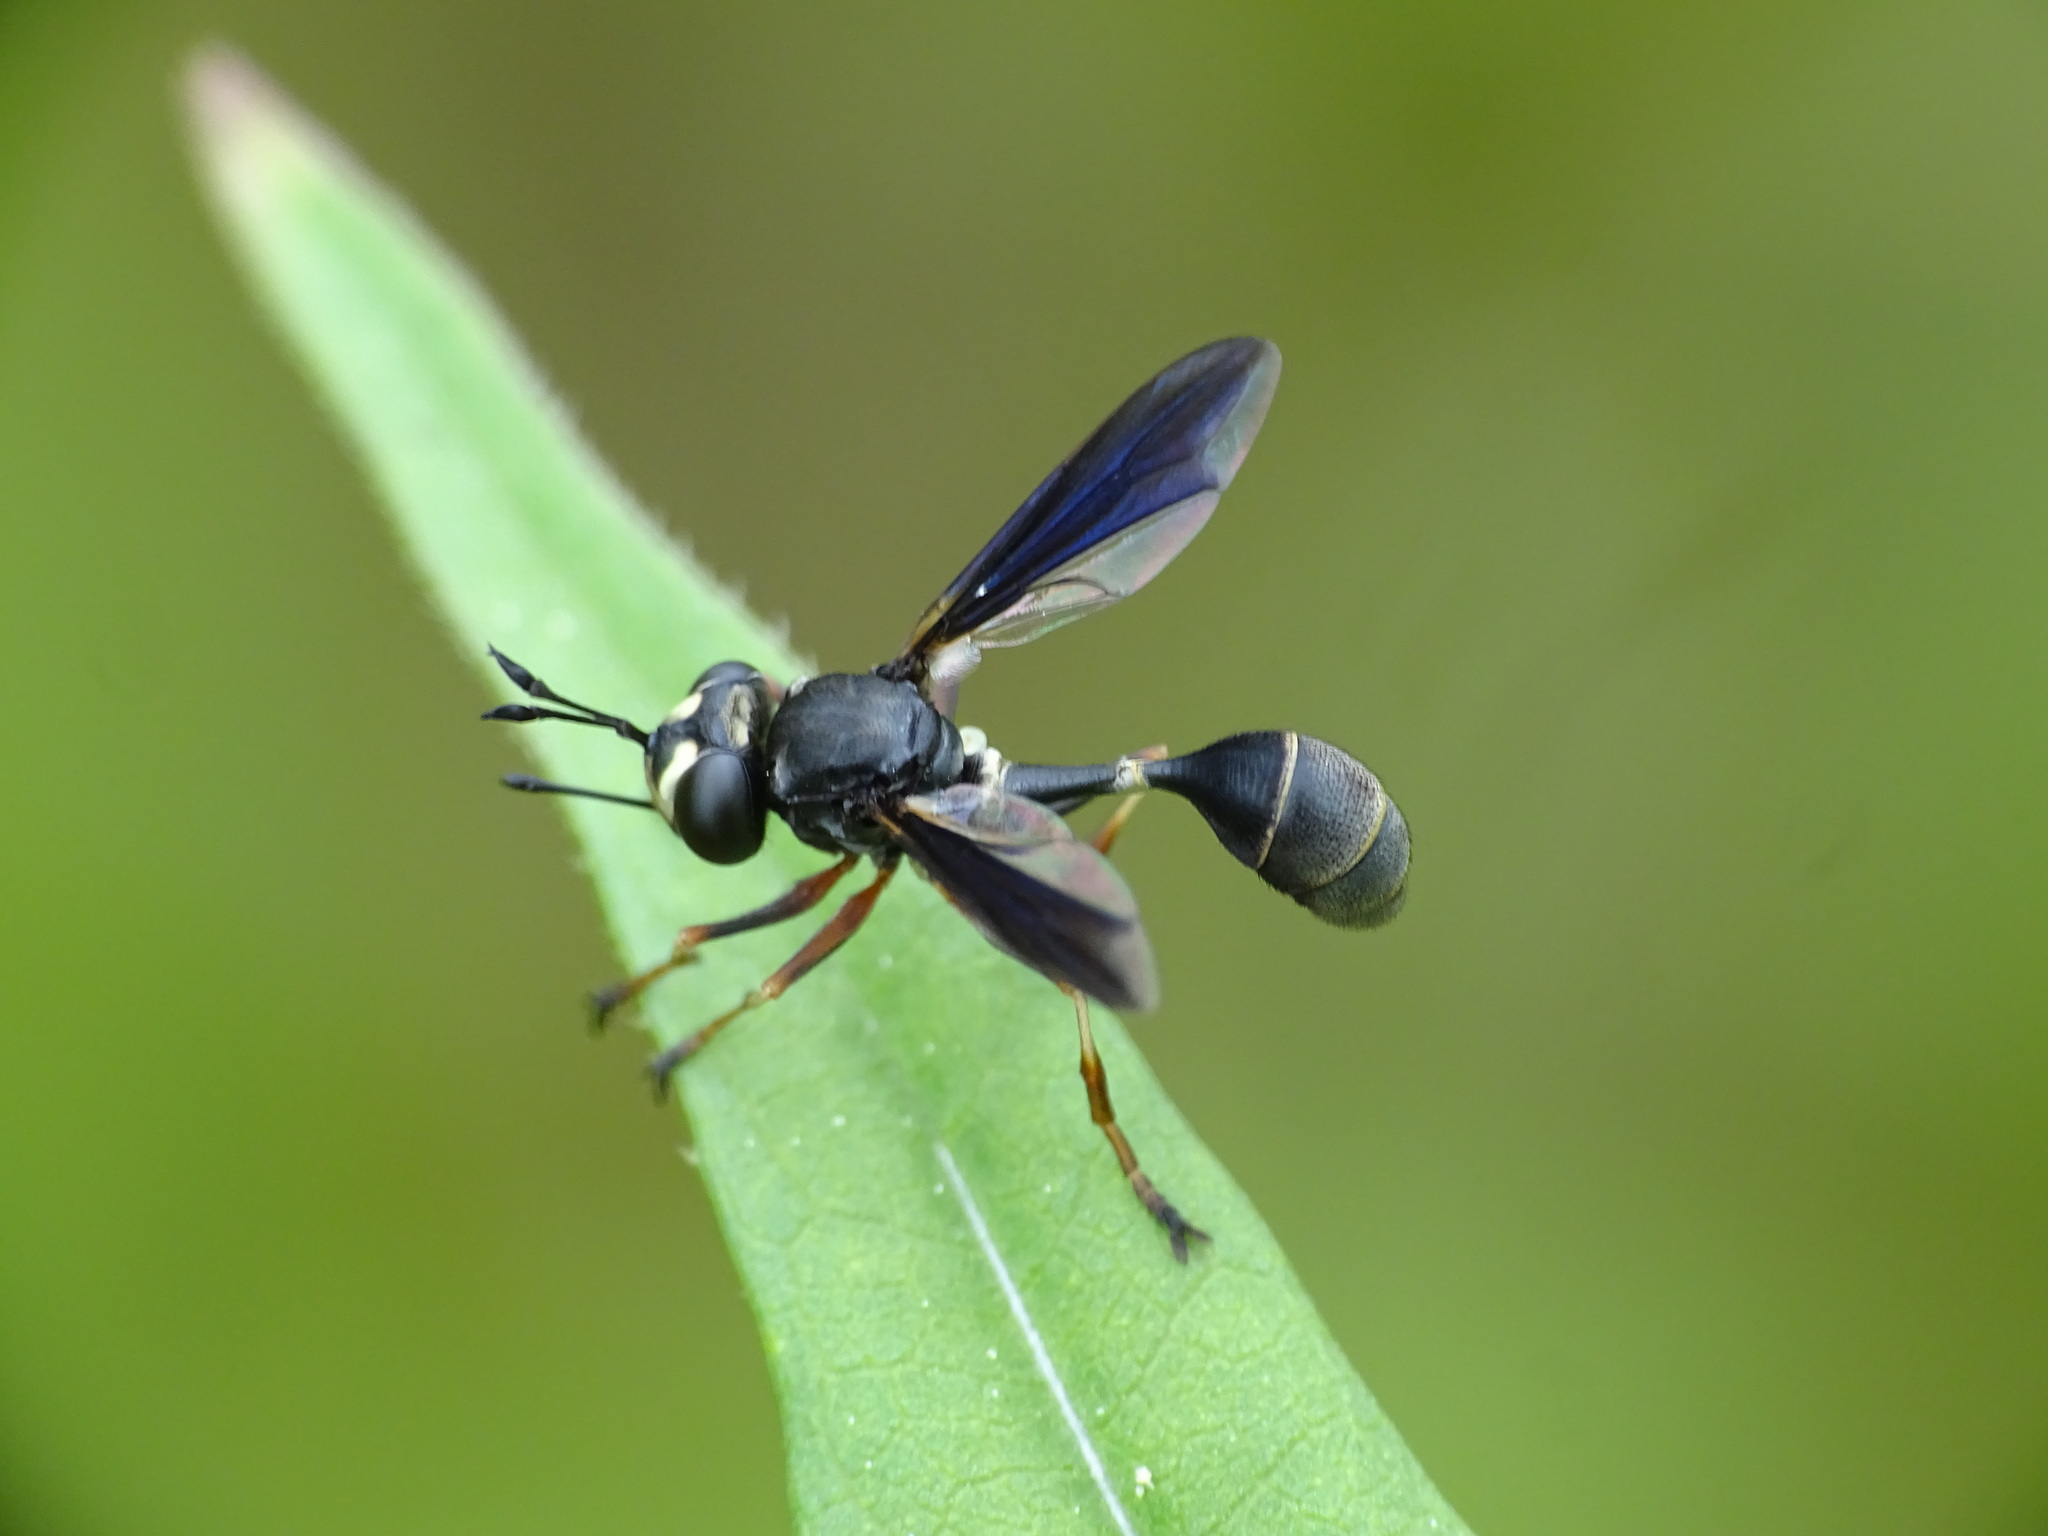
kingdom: Animalia
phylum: Arthropoda
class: Insecta
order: Diptera
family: Conopidae
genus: Physocephala
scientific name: Physocephala tibialis
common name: Common eastern physocephala
